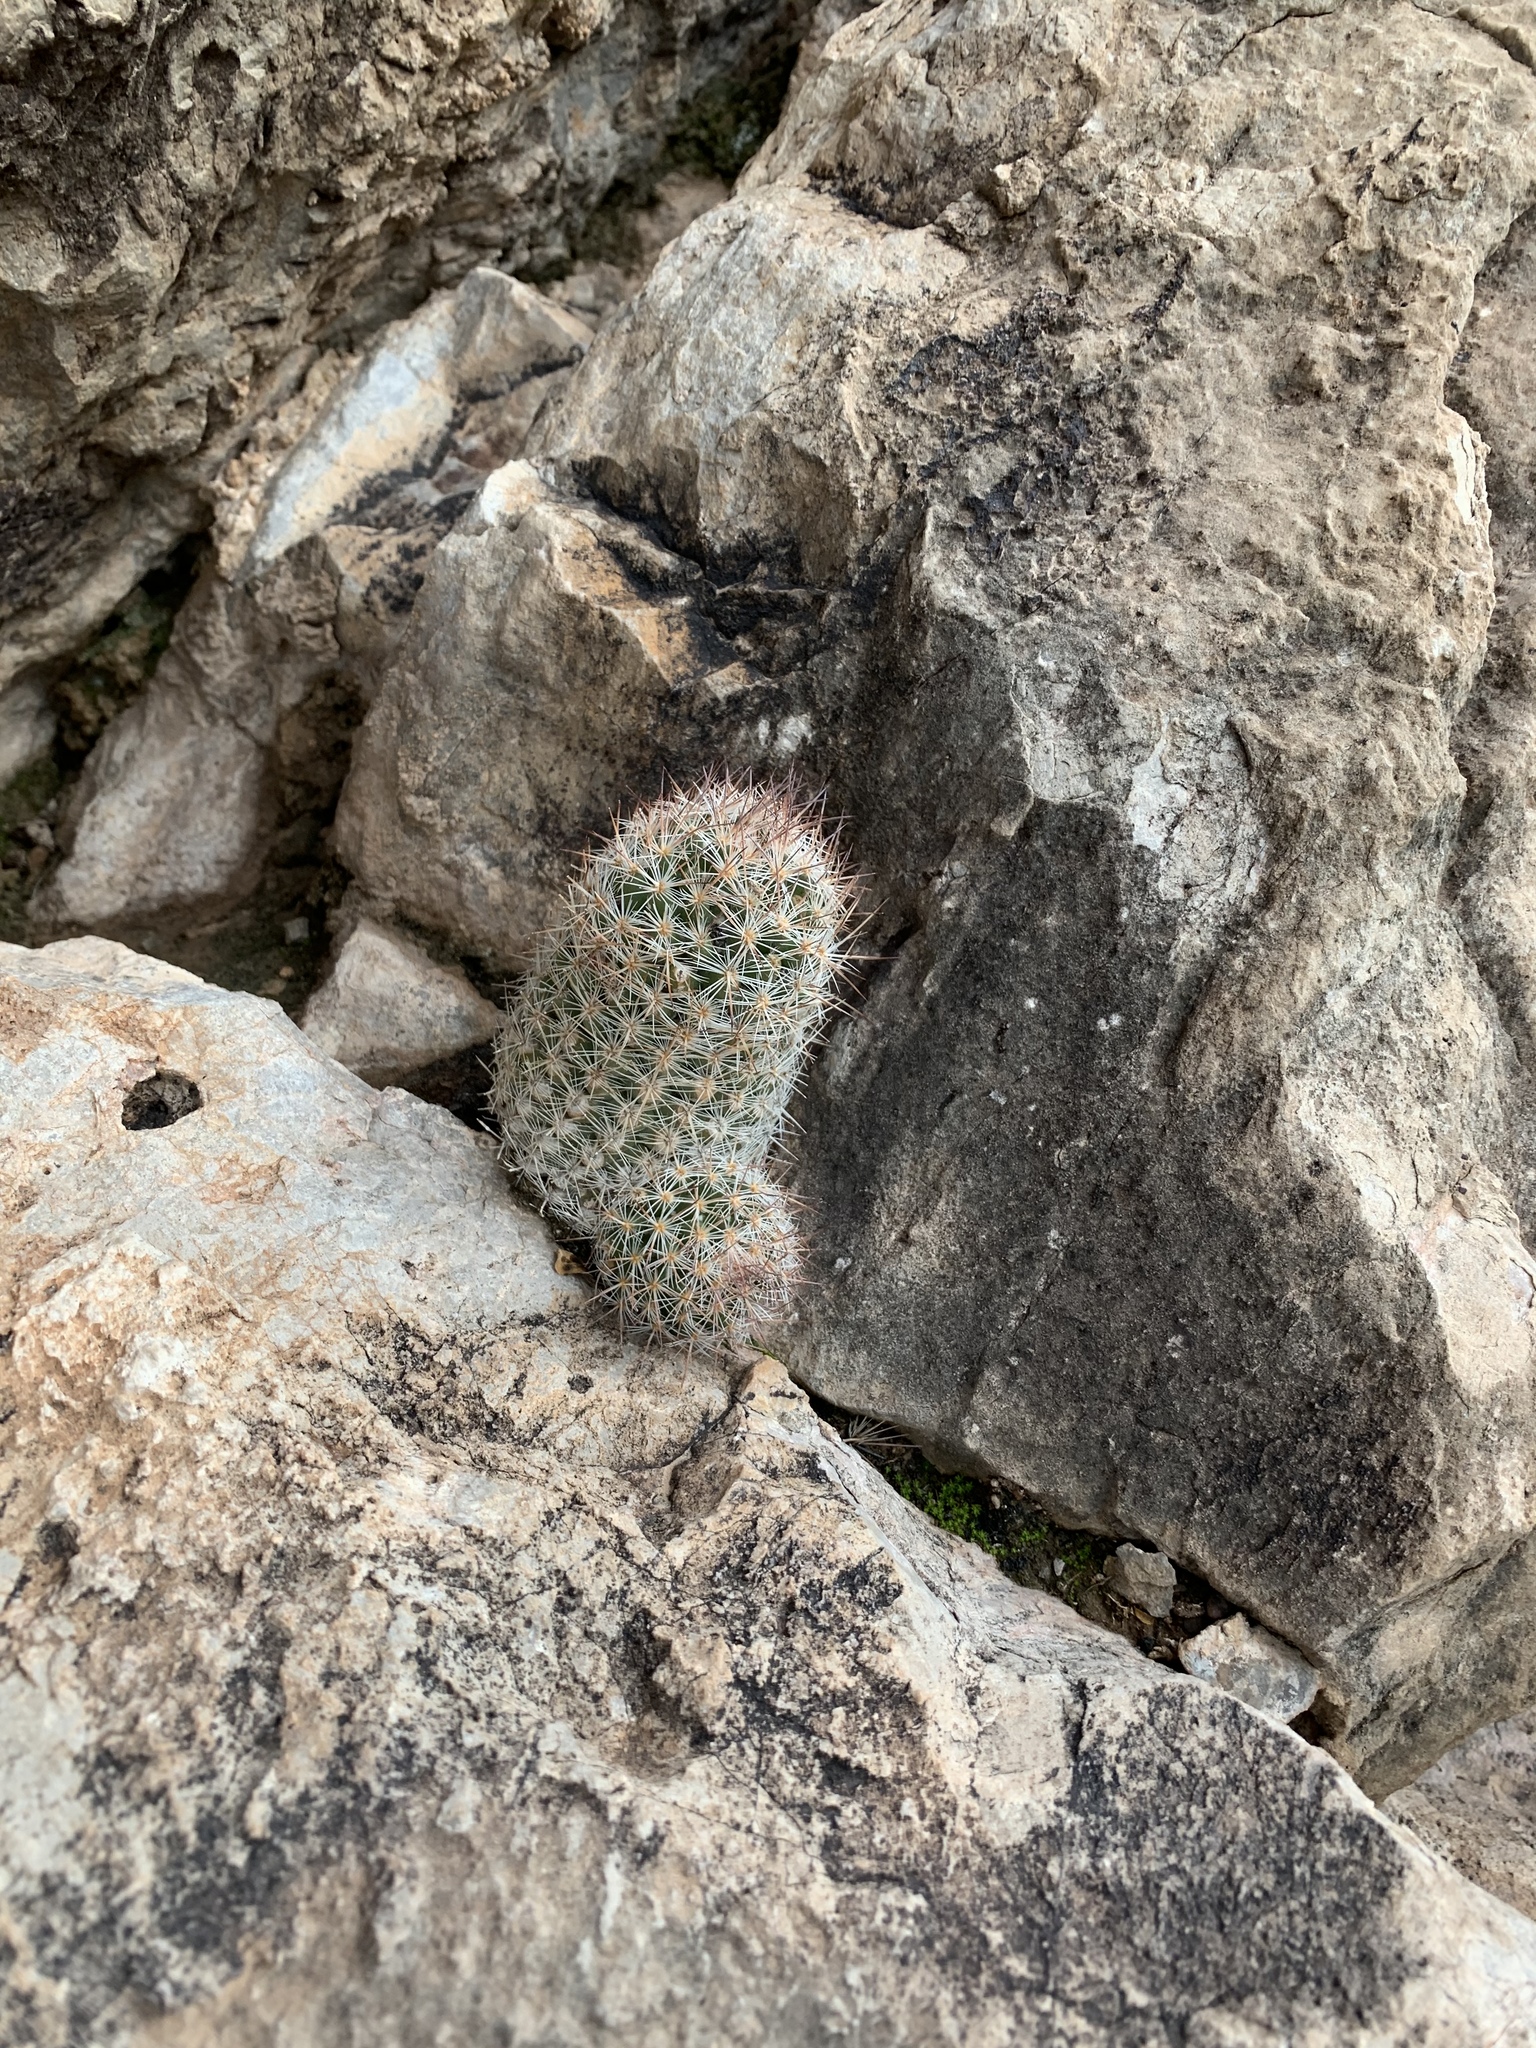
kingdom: Plantae
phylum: Tracheophyta
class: Magnoliopsida
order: Caryophyllales
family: Cactaceae
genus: Pelecyphora
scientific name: Pelecyphora sneedii
